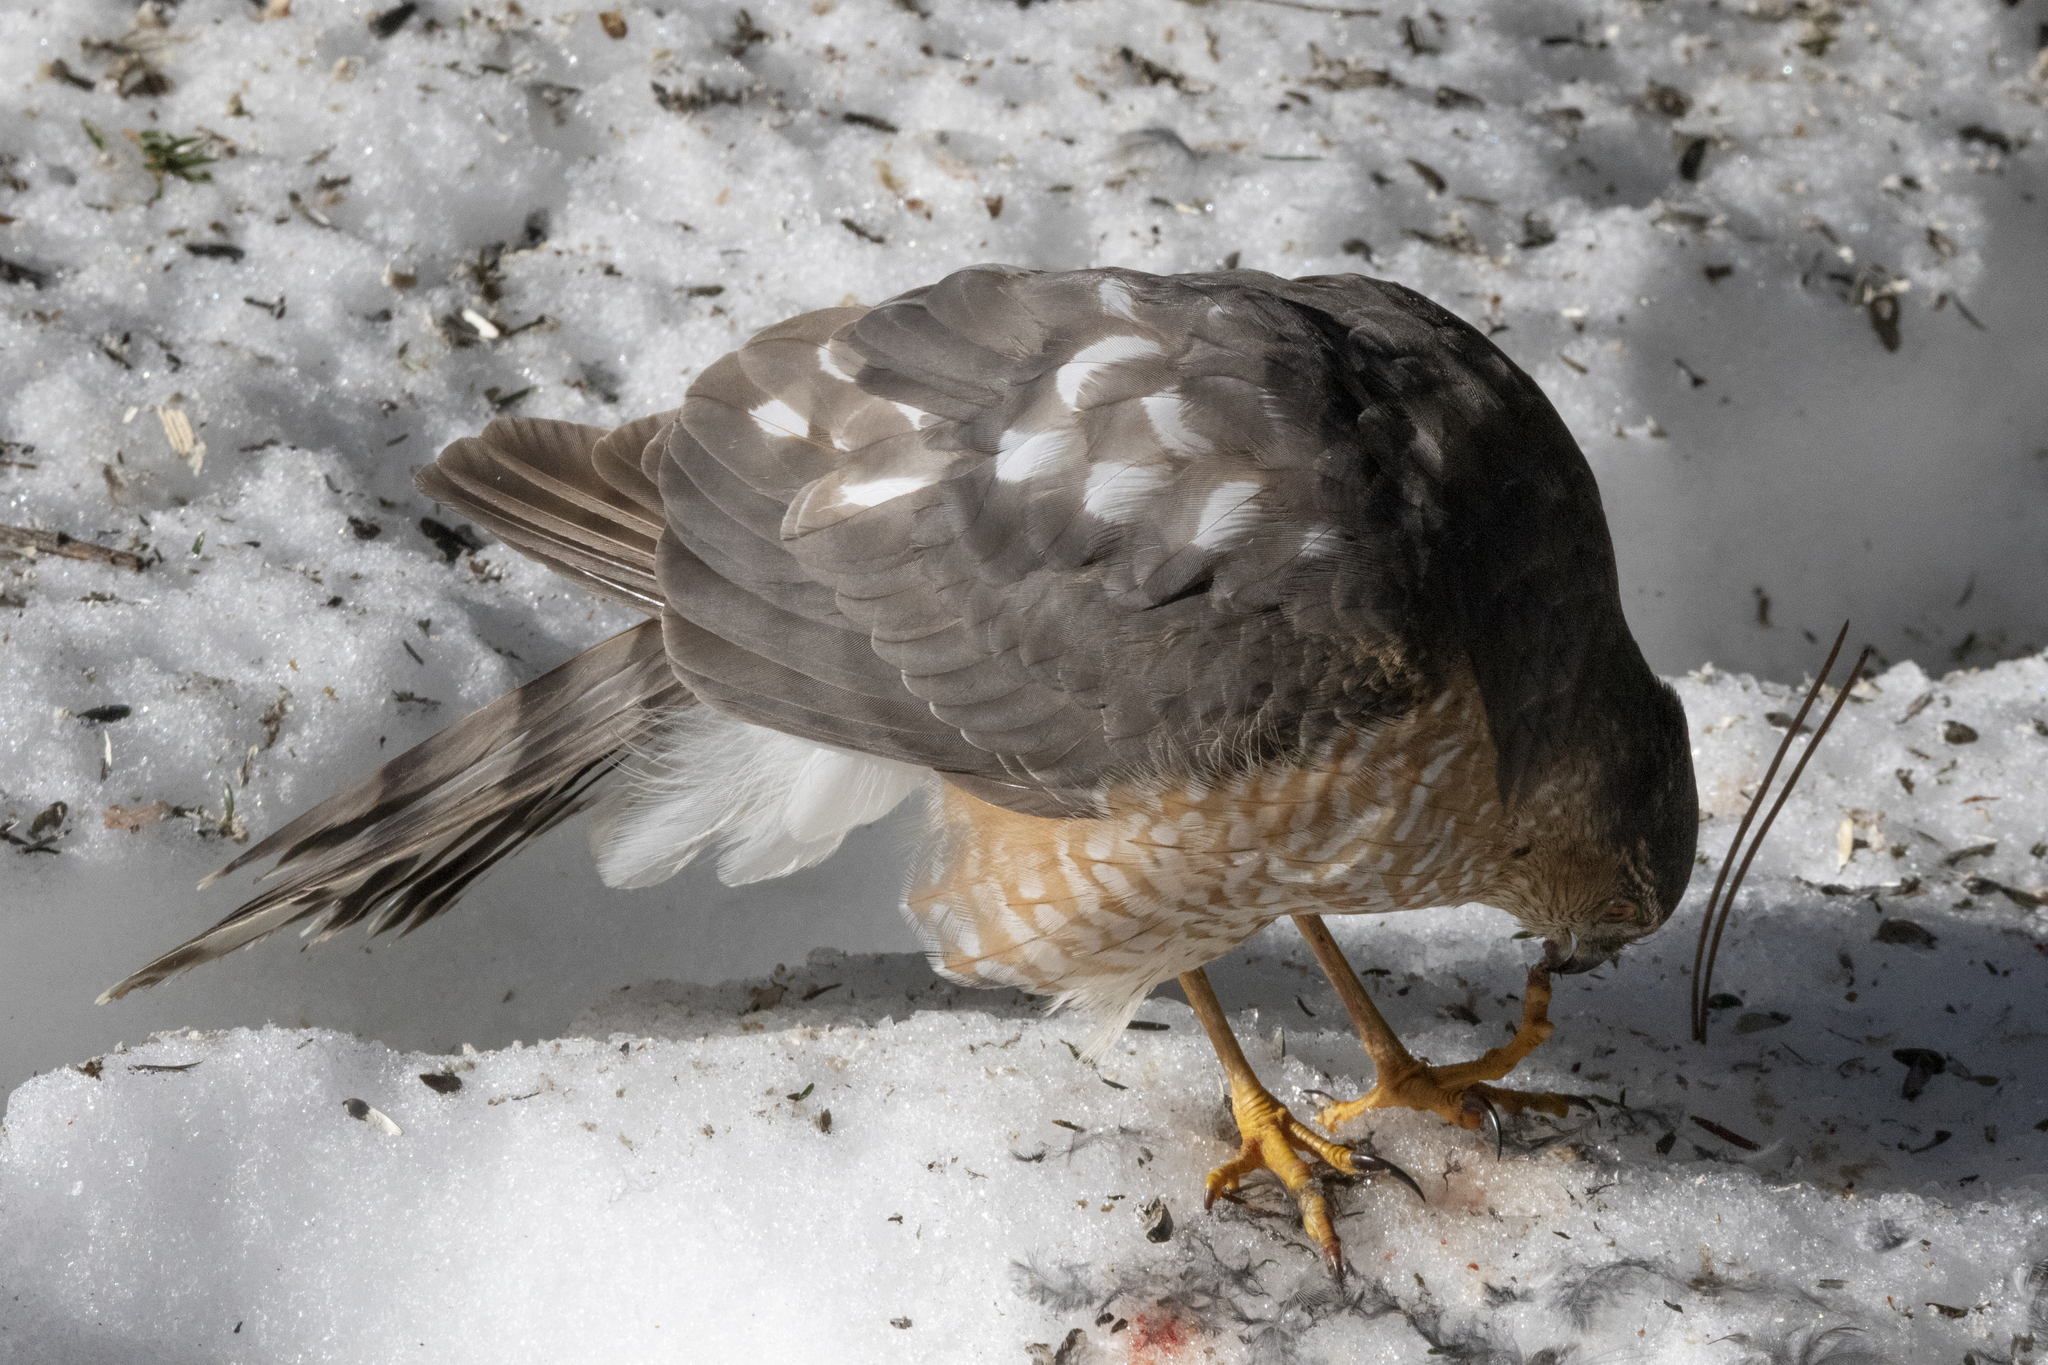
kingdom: Animalia
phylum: Chordata
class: Aves
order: Accipitriformes
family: Accipitridae
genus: Accipiter
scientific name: Accipiter striatus
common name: Sharp-shinned hawk
